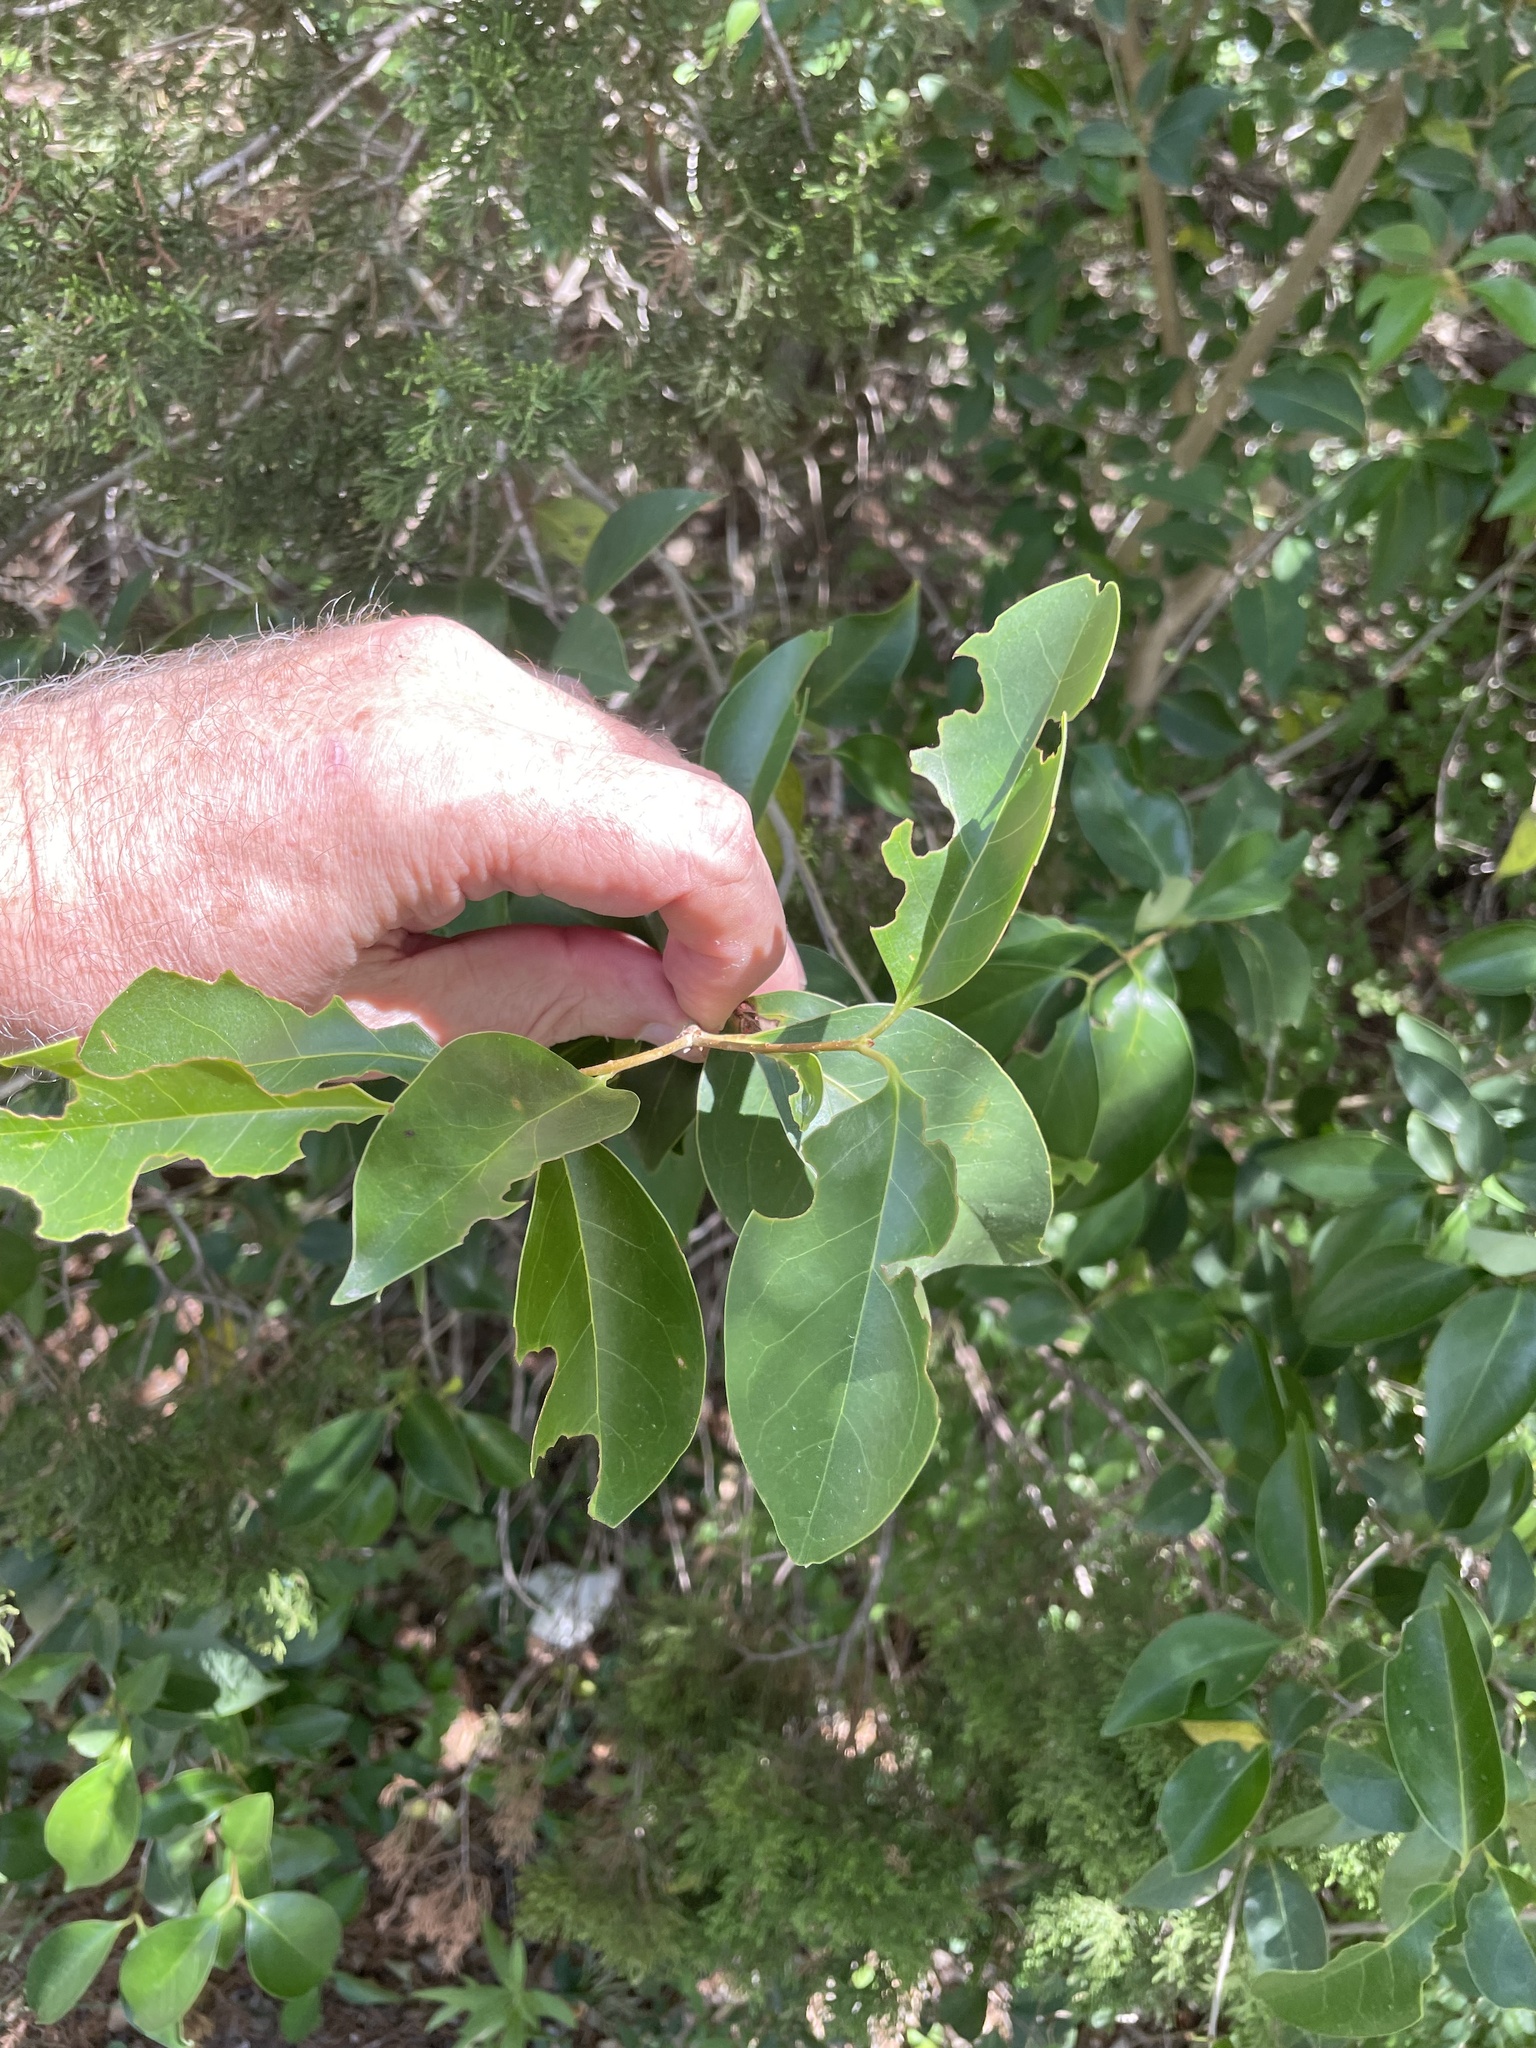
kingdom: Plantae
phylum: Tracheophyta
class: Magnoliopsida
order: Lamiales
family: Oleaceae
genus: Ligustrum
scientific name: Ligustrum lucidum
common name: Glossy privet
